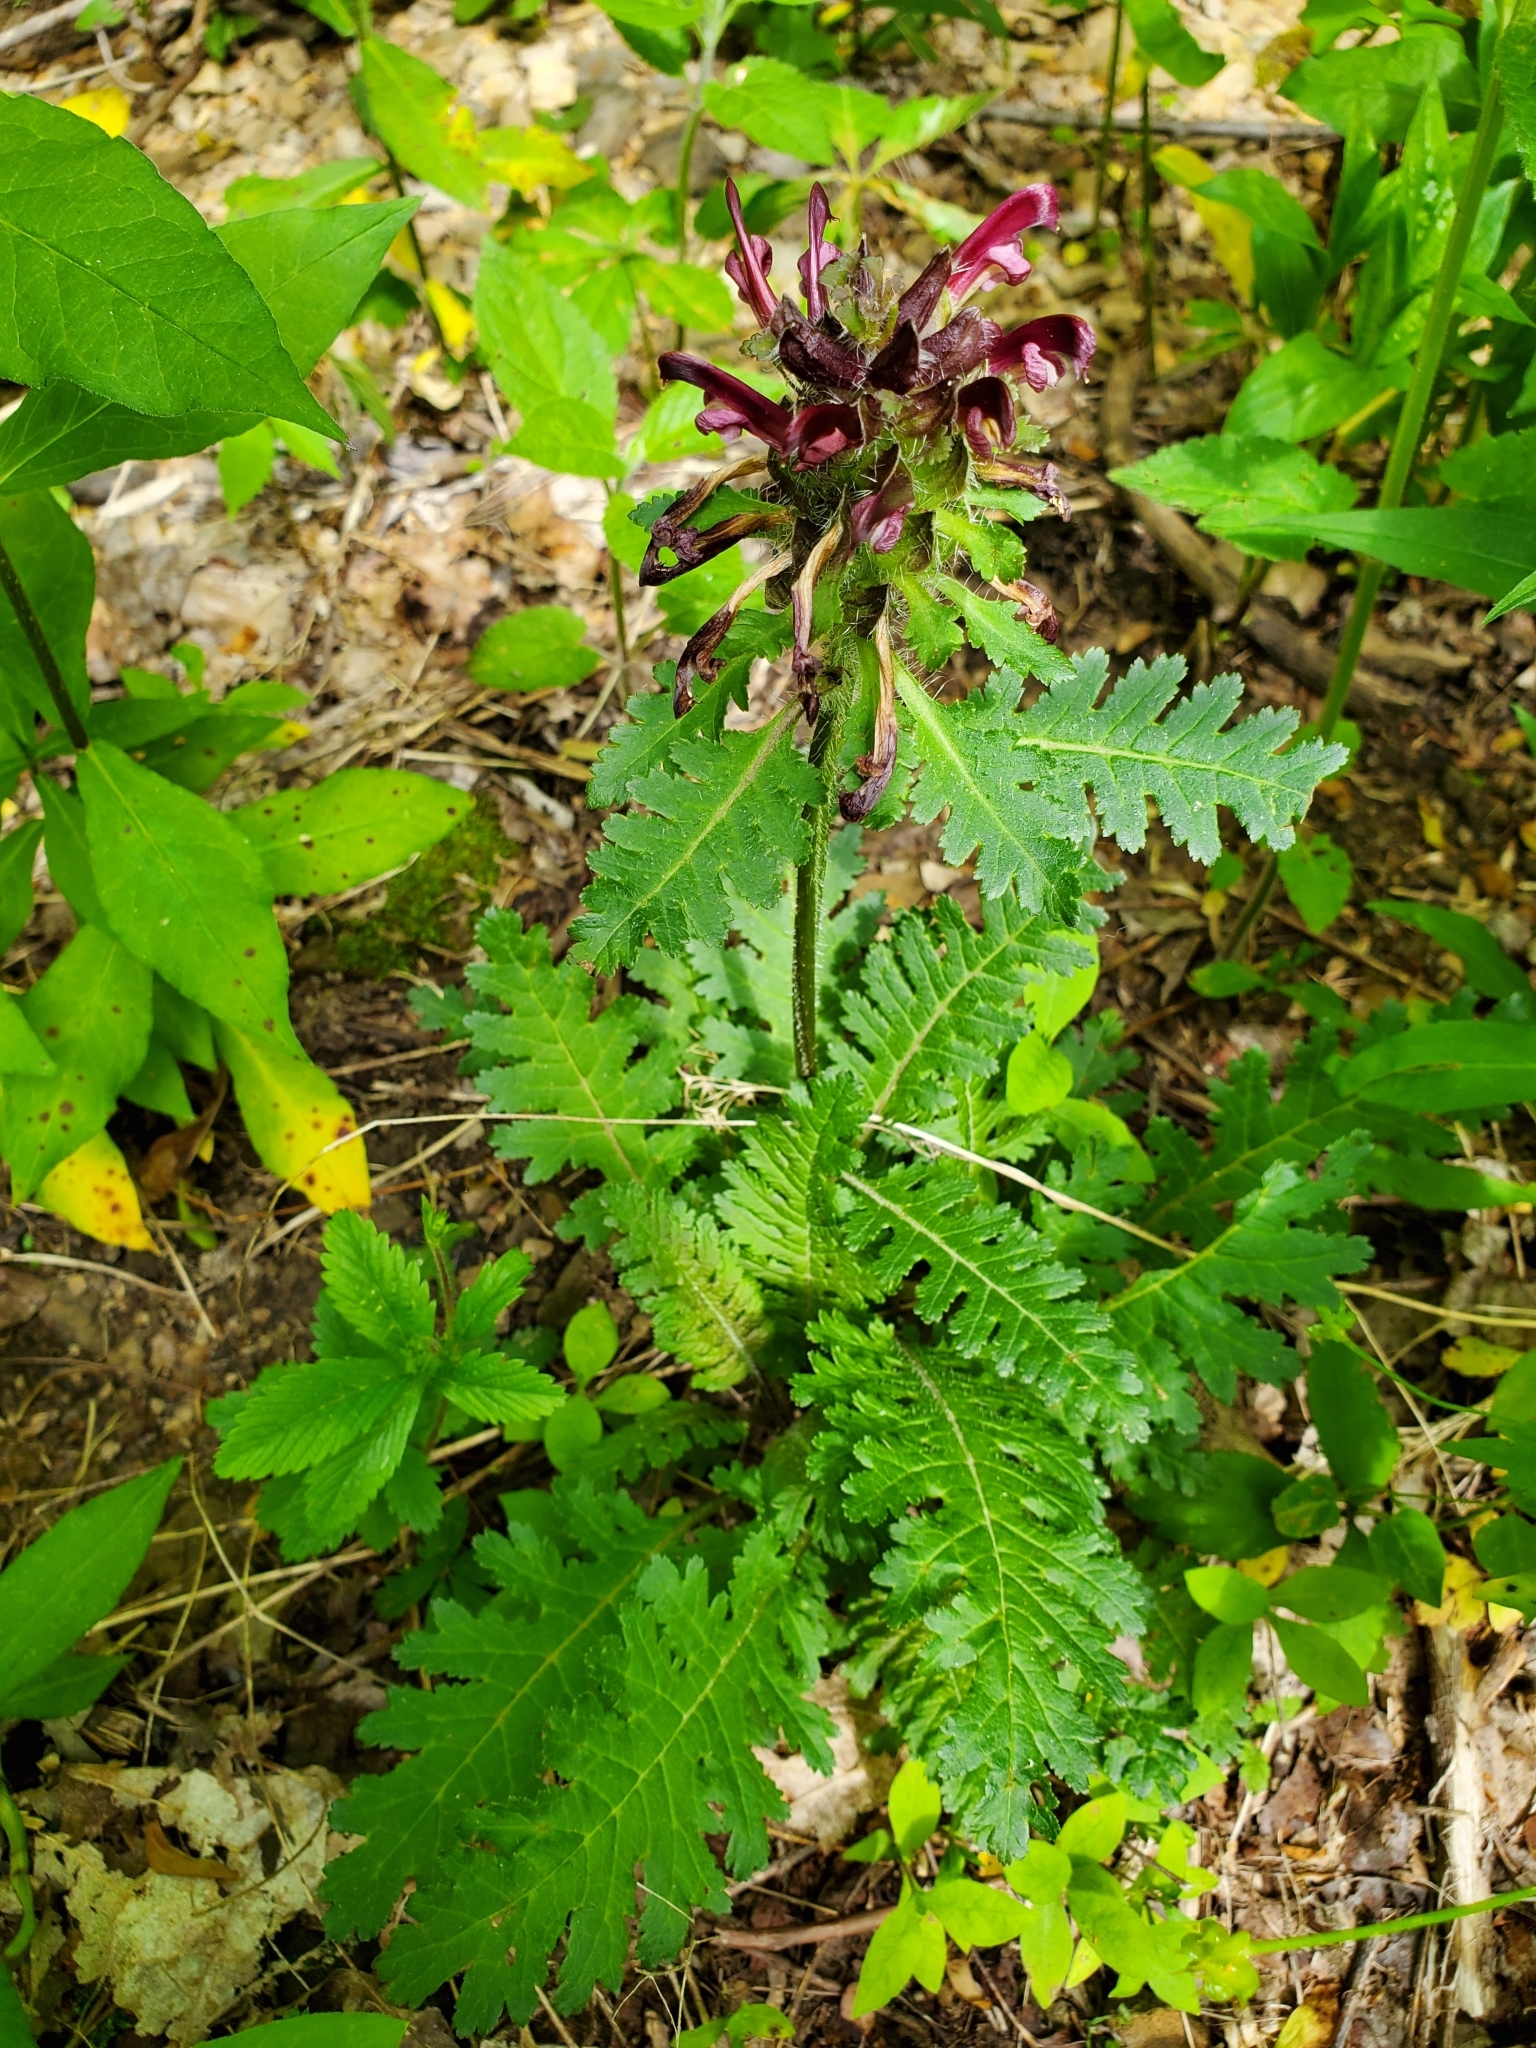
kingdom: Plantae
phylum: Tracheophyta
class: Magnoliopsida
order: Lamiales
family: Orobanchaceae
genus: Pedicularis
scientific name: Pedicularis canadensis
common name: Early lousewort
